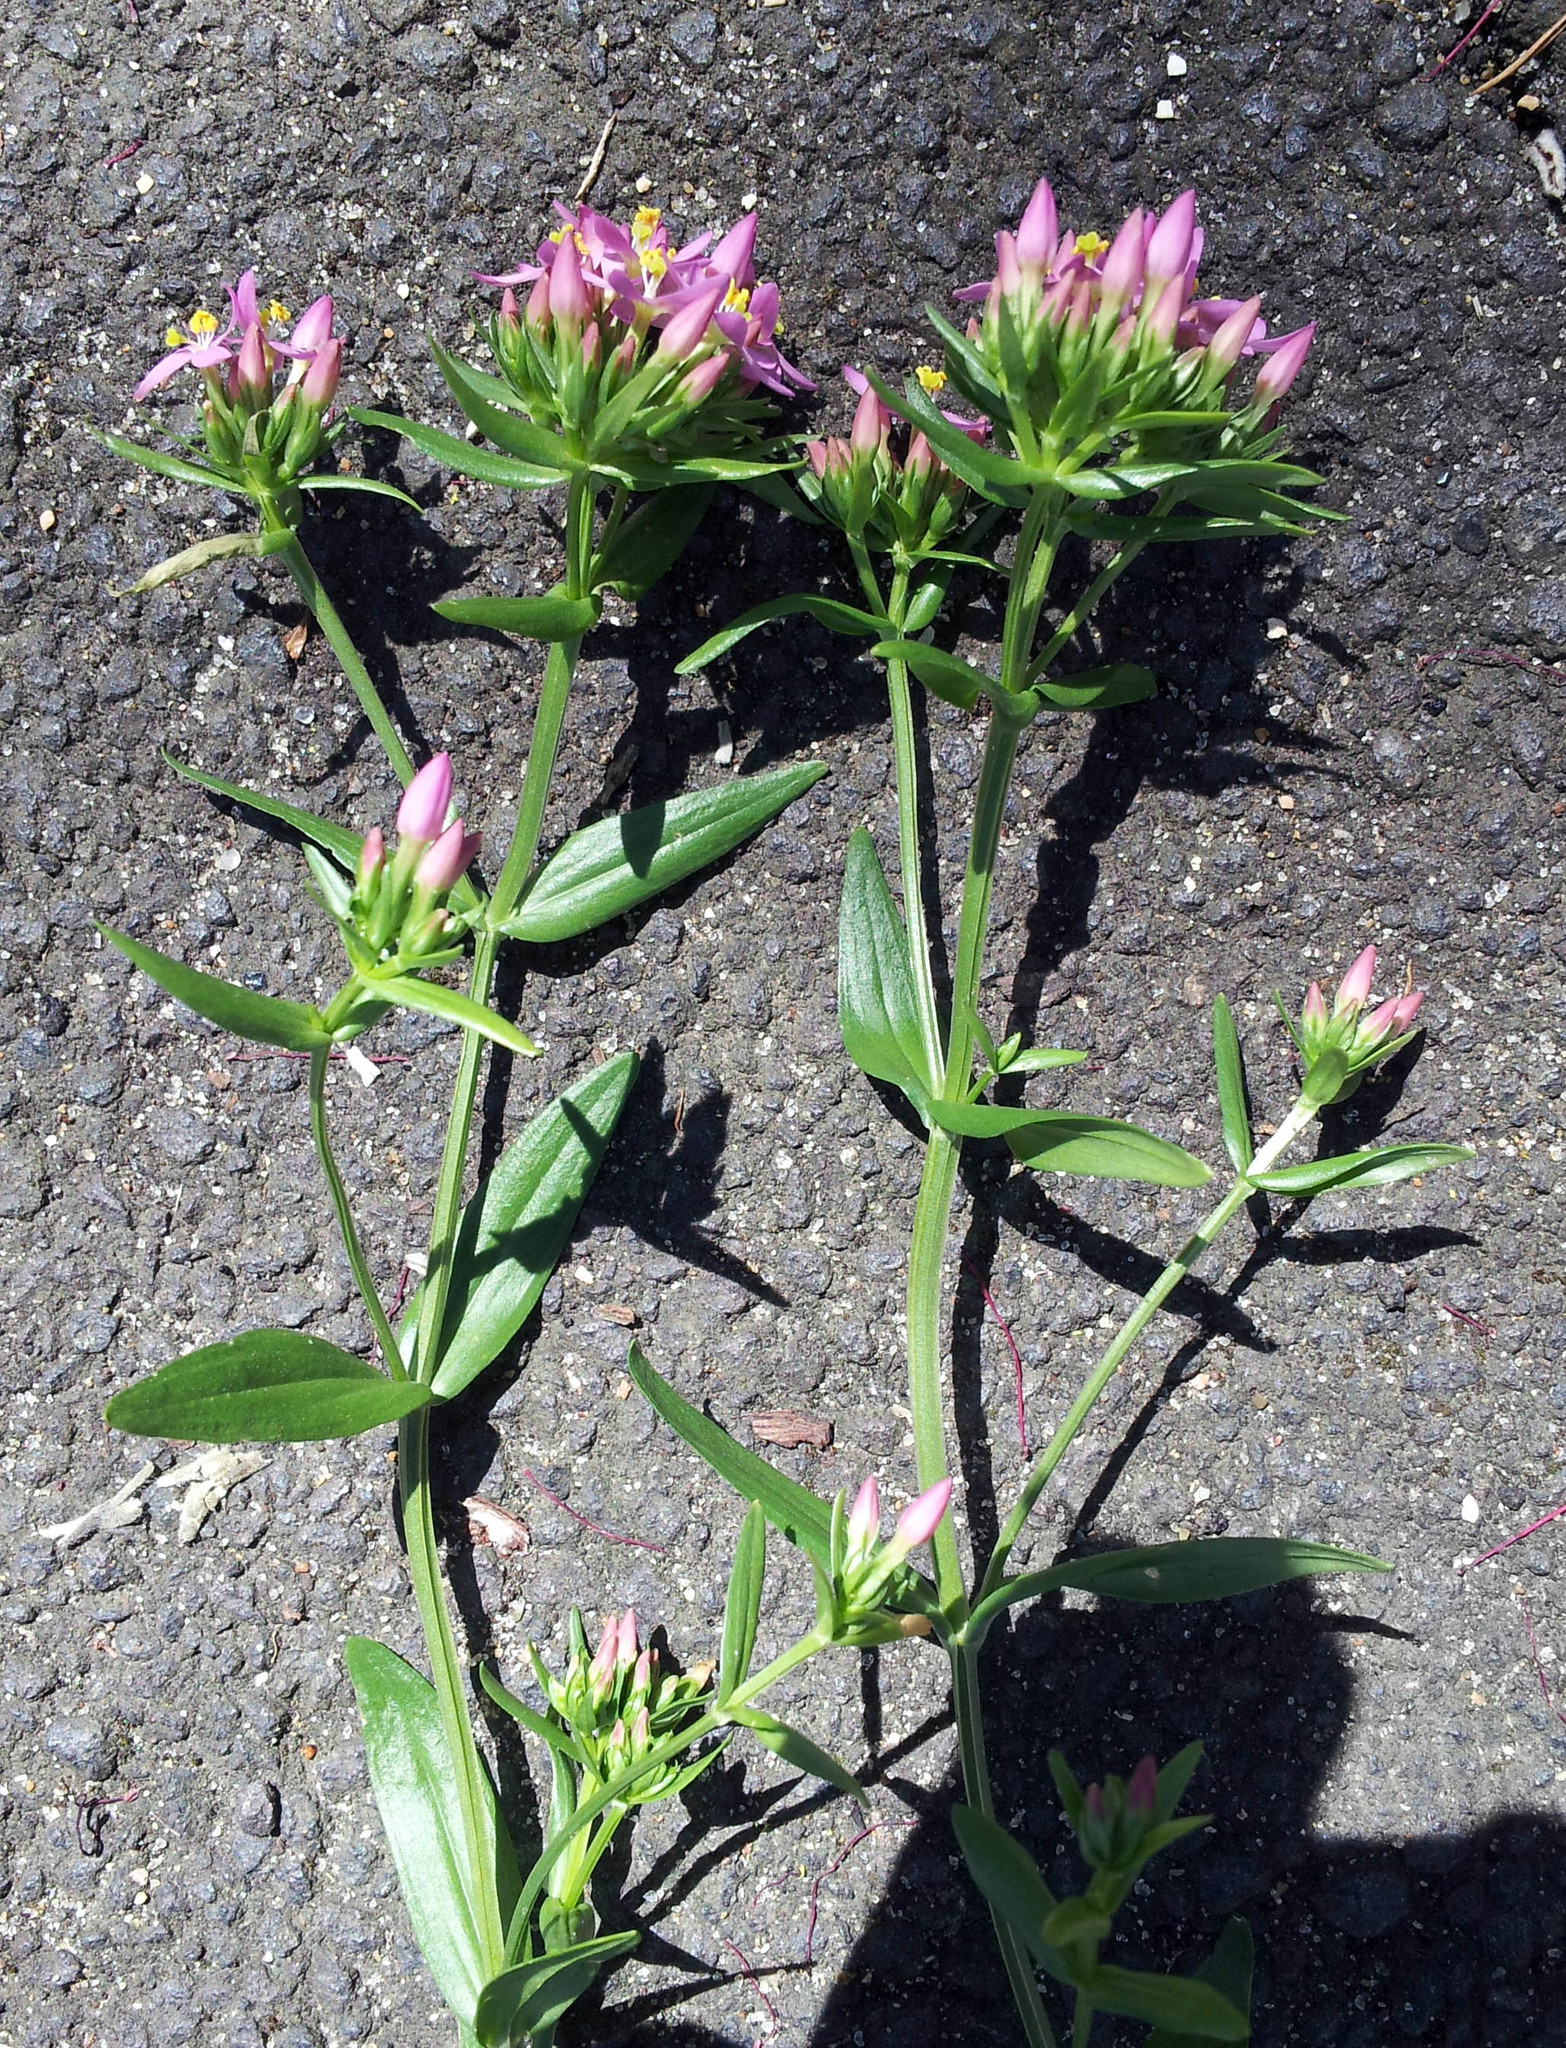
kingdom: Plantae
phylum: Tracheophyta
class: Magnoliopsida
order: Gentianales
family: Gentianaceae
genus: Centaurium
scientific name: Centaurium erythraea
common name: Common centaury
